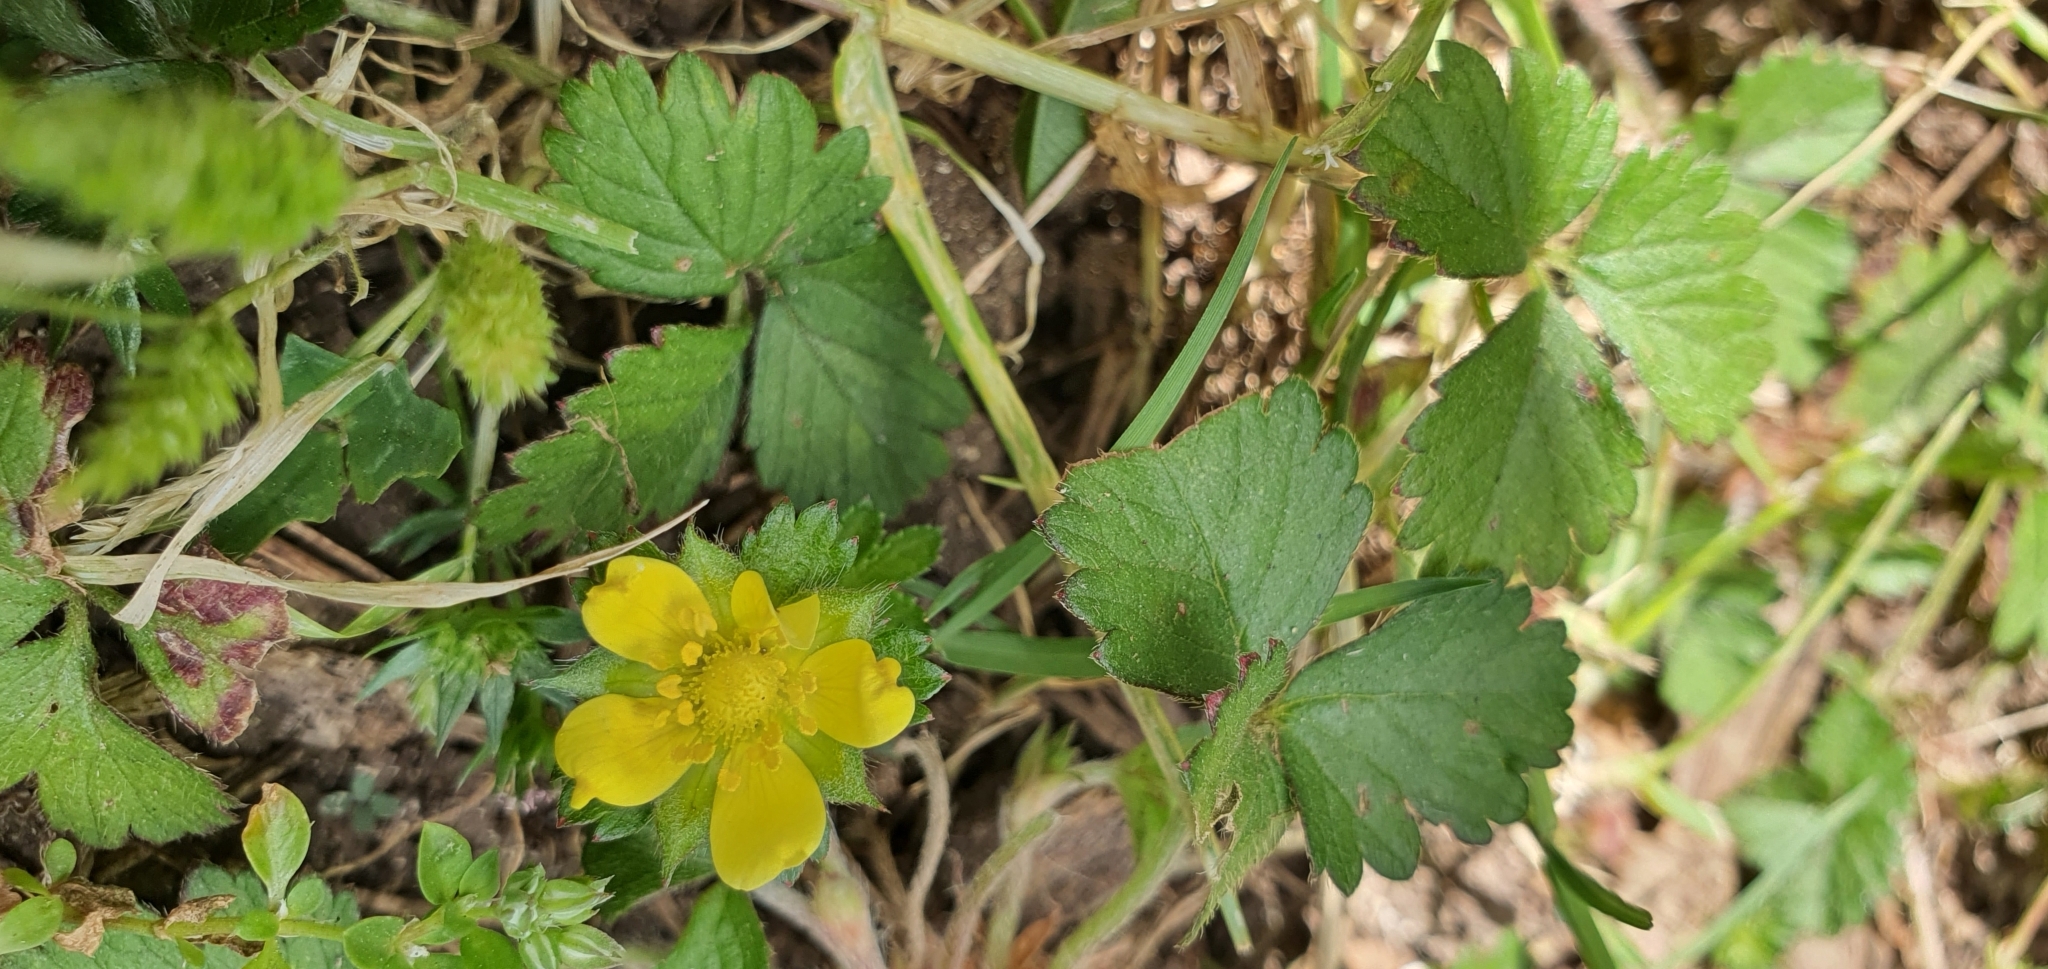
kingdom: Plantae
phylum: Tracheophyta
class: Magnoliopsida
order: Rosales
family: Rosaceae
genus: Potentilla
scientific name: Potentilla indica
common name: Yellow-flowered strawberry
